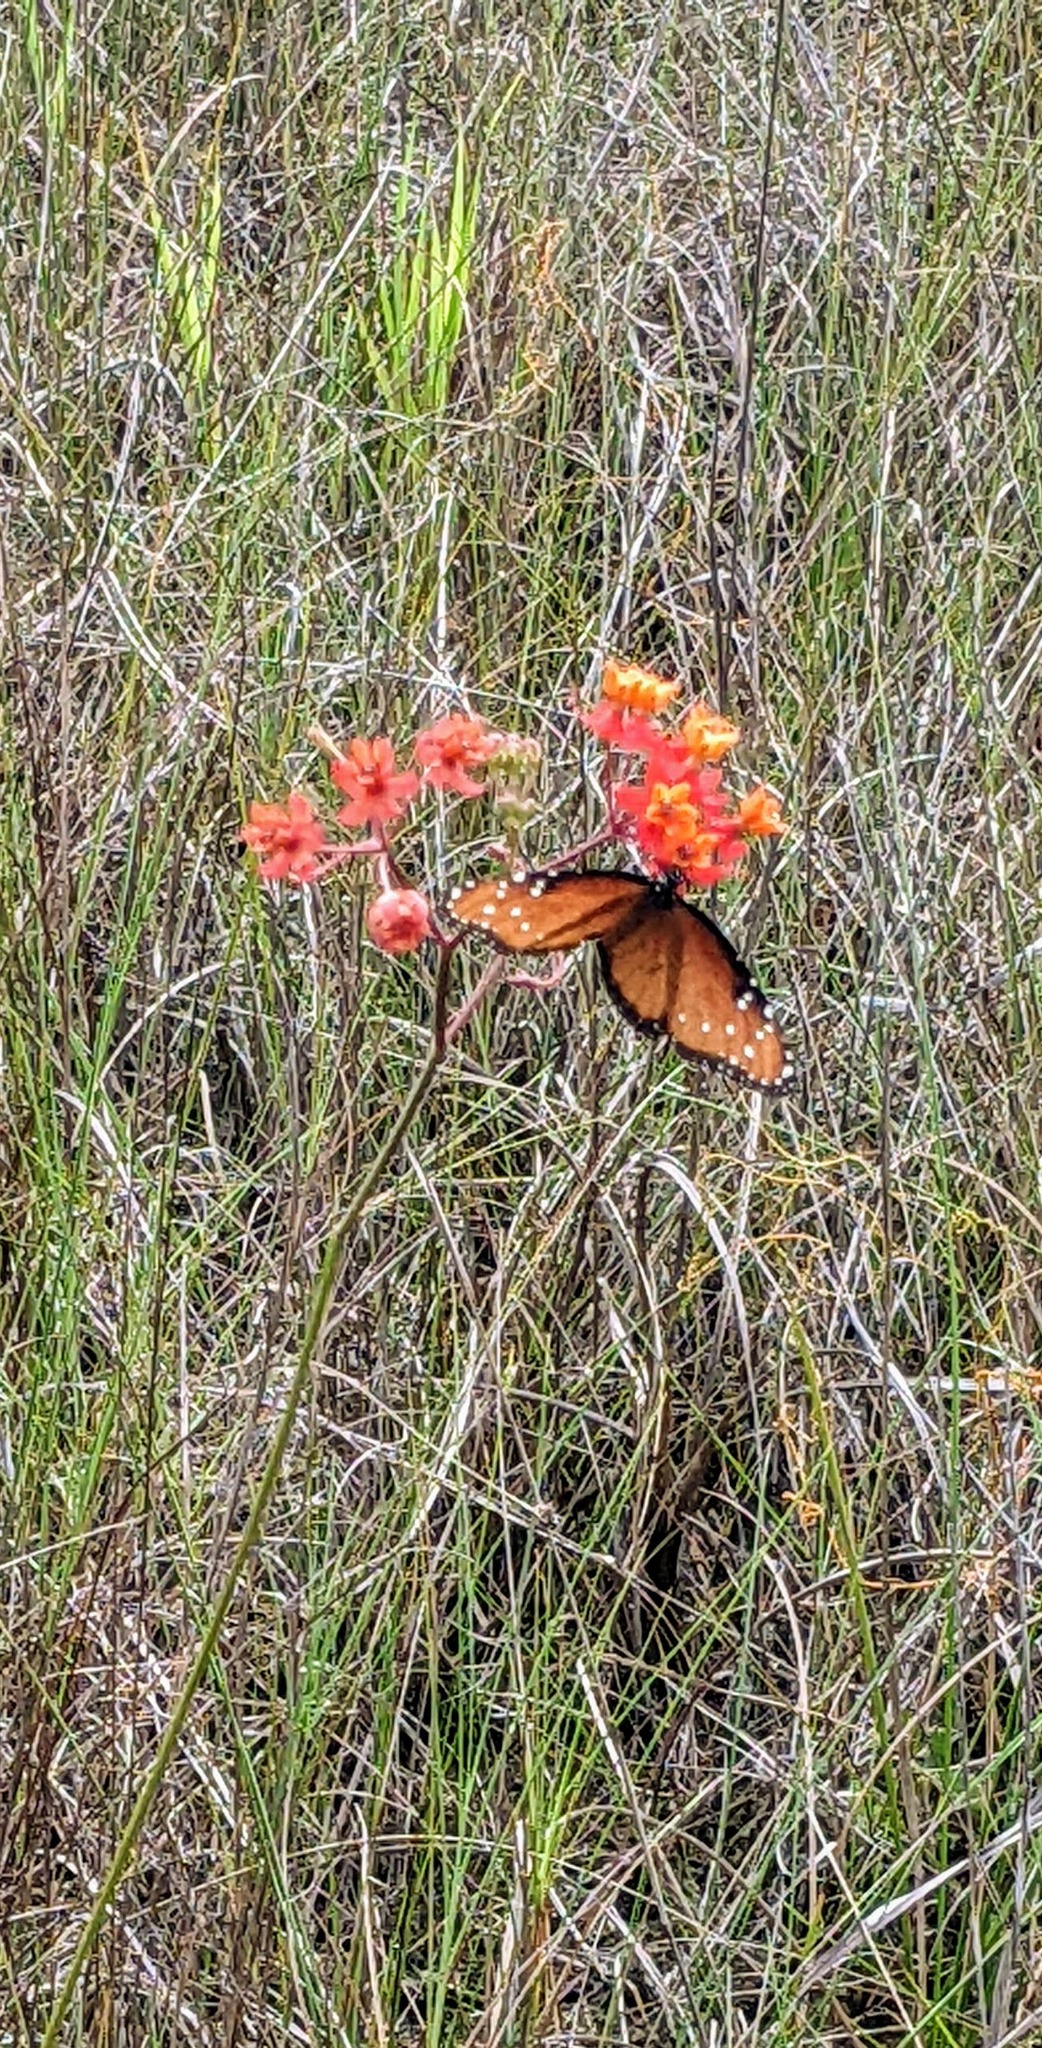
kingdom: Animalia
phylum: Arthropoda
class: Insecta
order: Lepidoptera
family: Nymphalidae
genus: Danaus
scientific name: Danaus gilippus
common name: Queen
